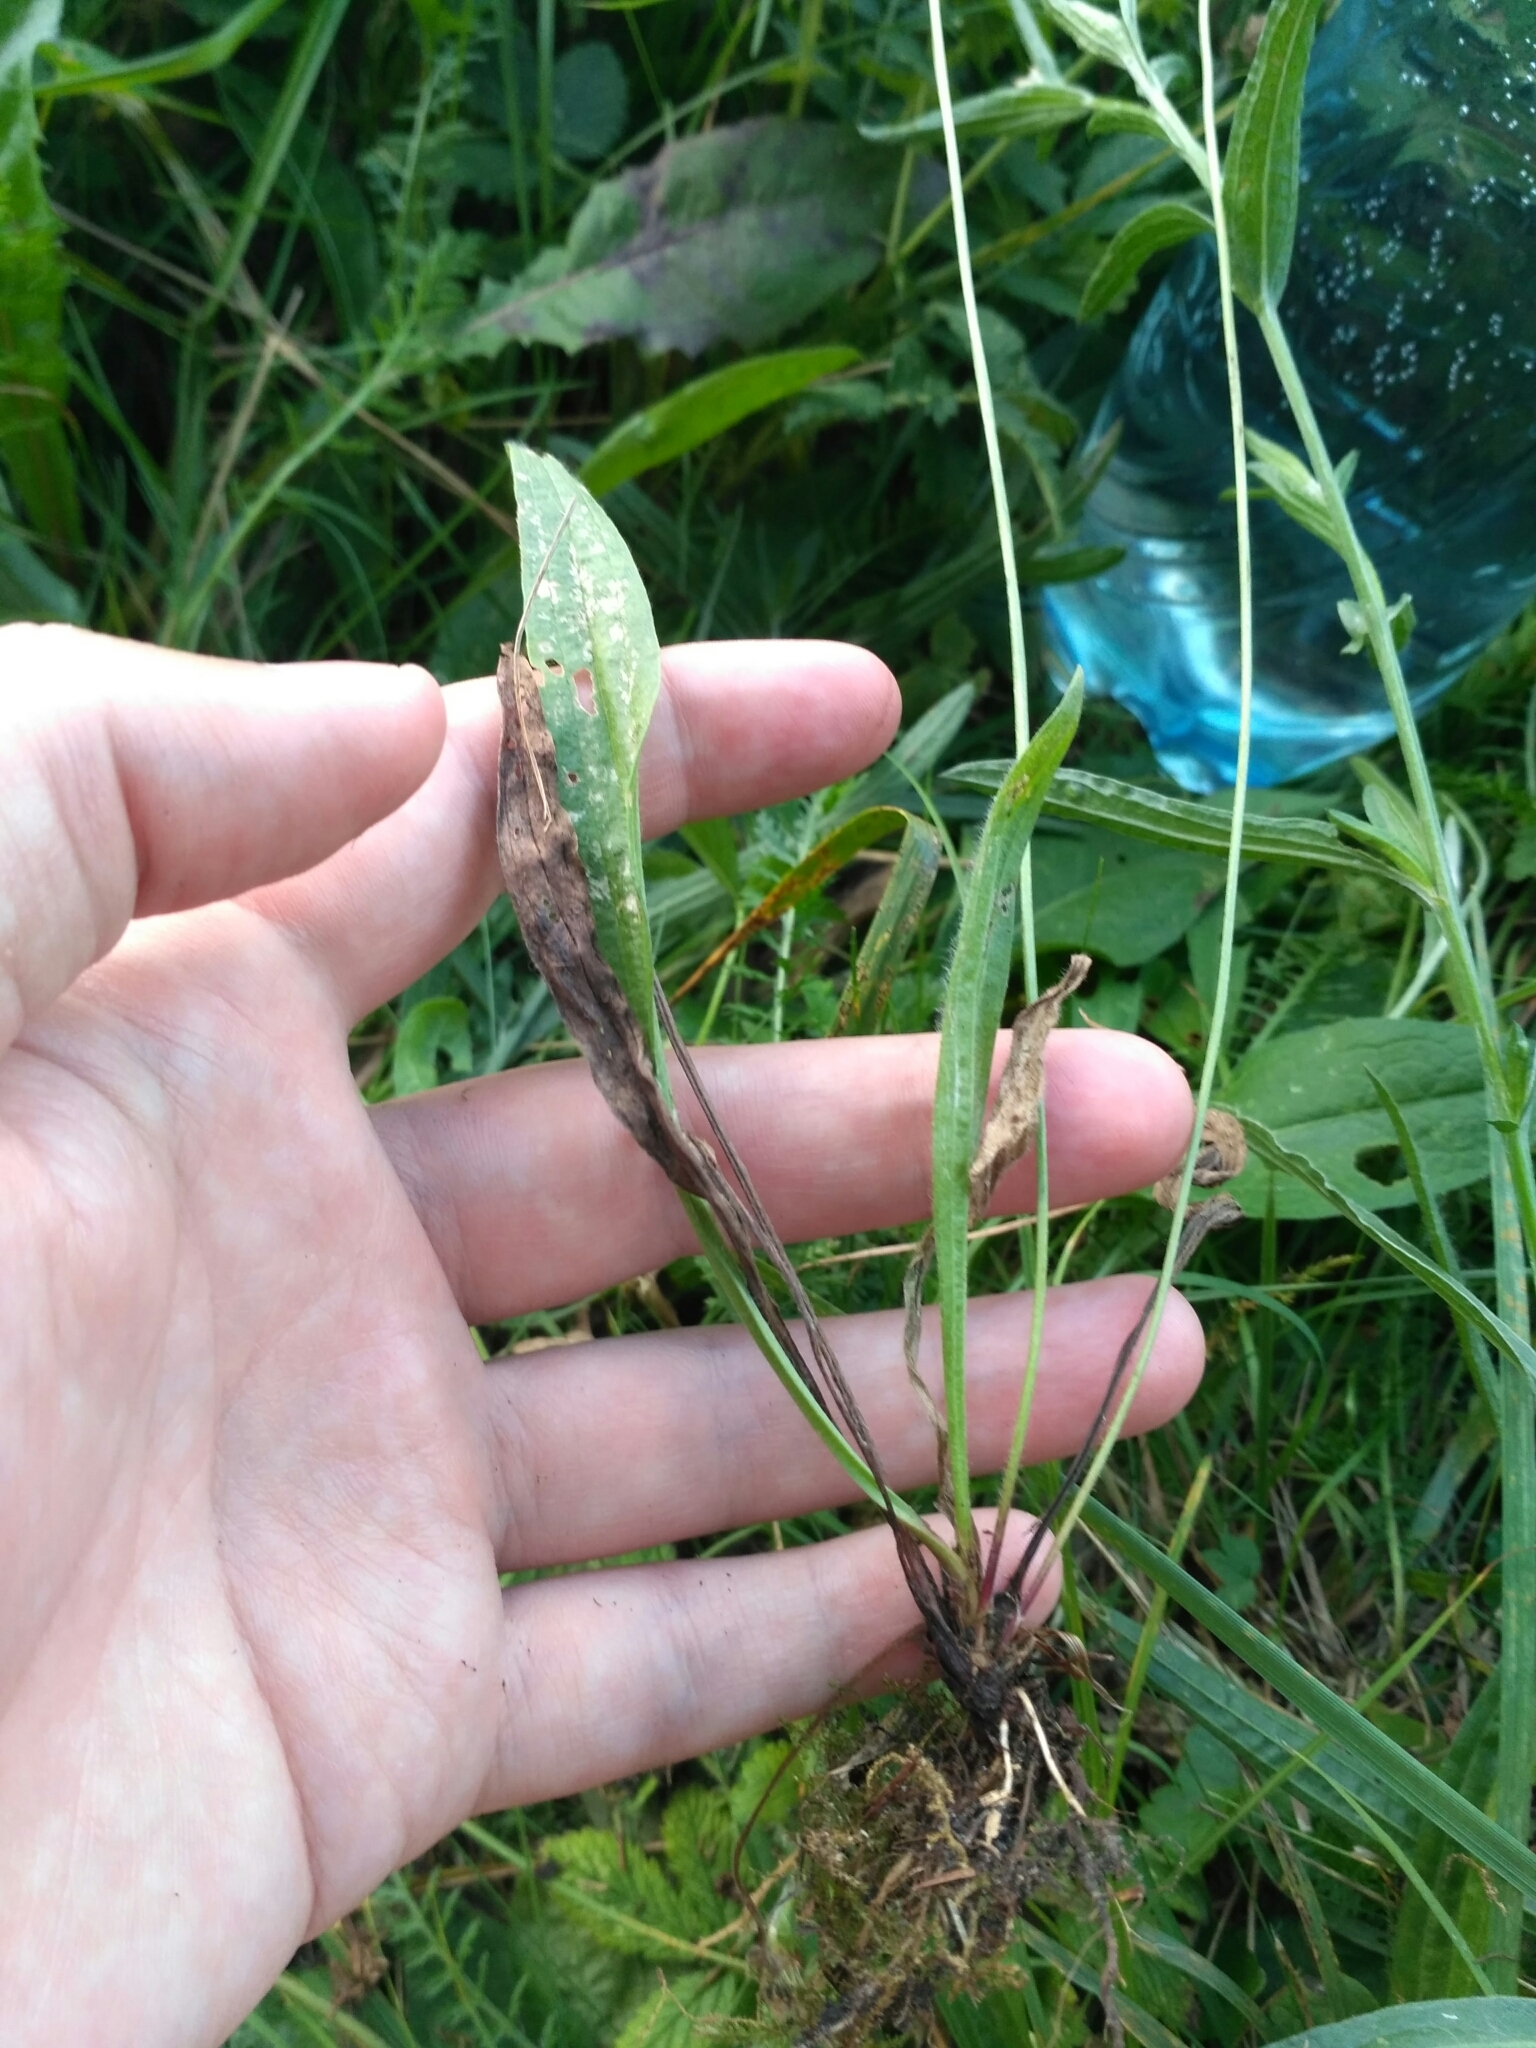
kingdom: Plantae
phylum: Tracheophyta
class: Magnoliopsida
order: Lamiales
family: Plantaginaceae
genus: Plantago
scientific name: Plantago lanceolata
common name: Ribwort plantain
